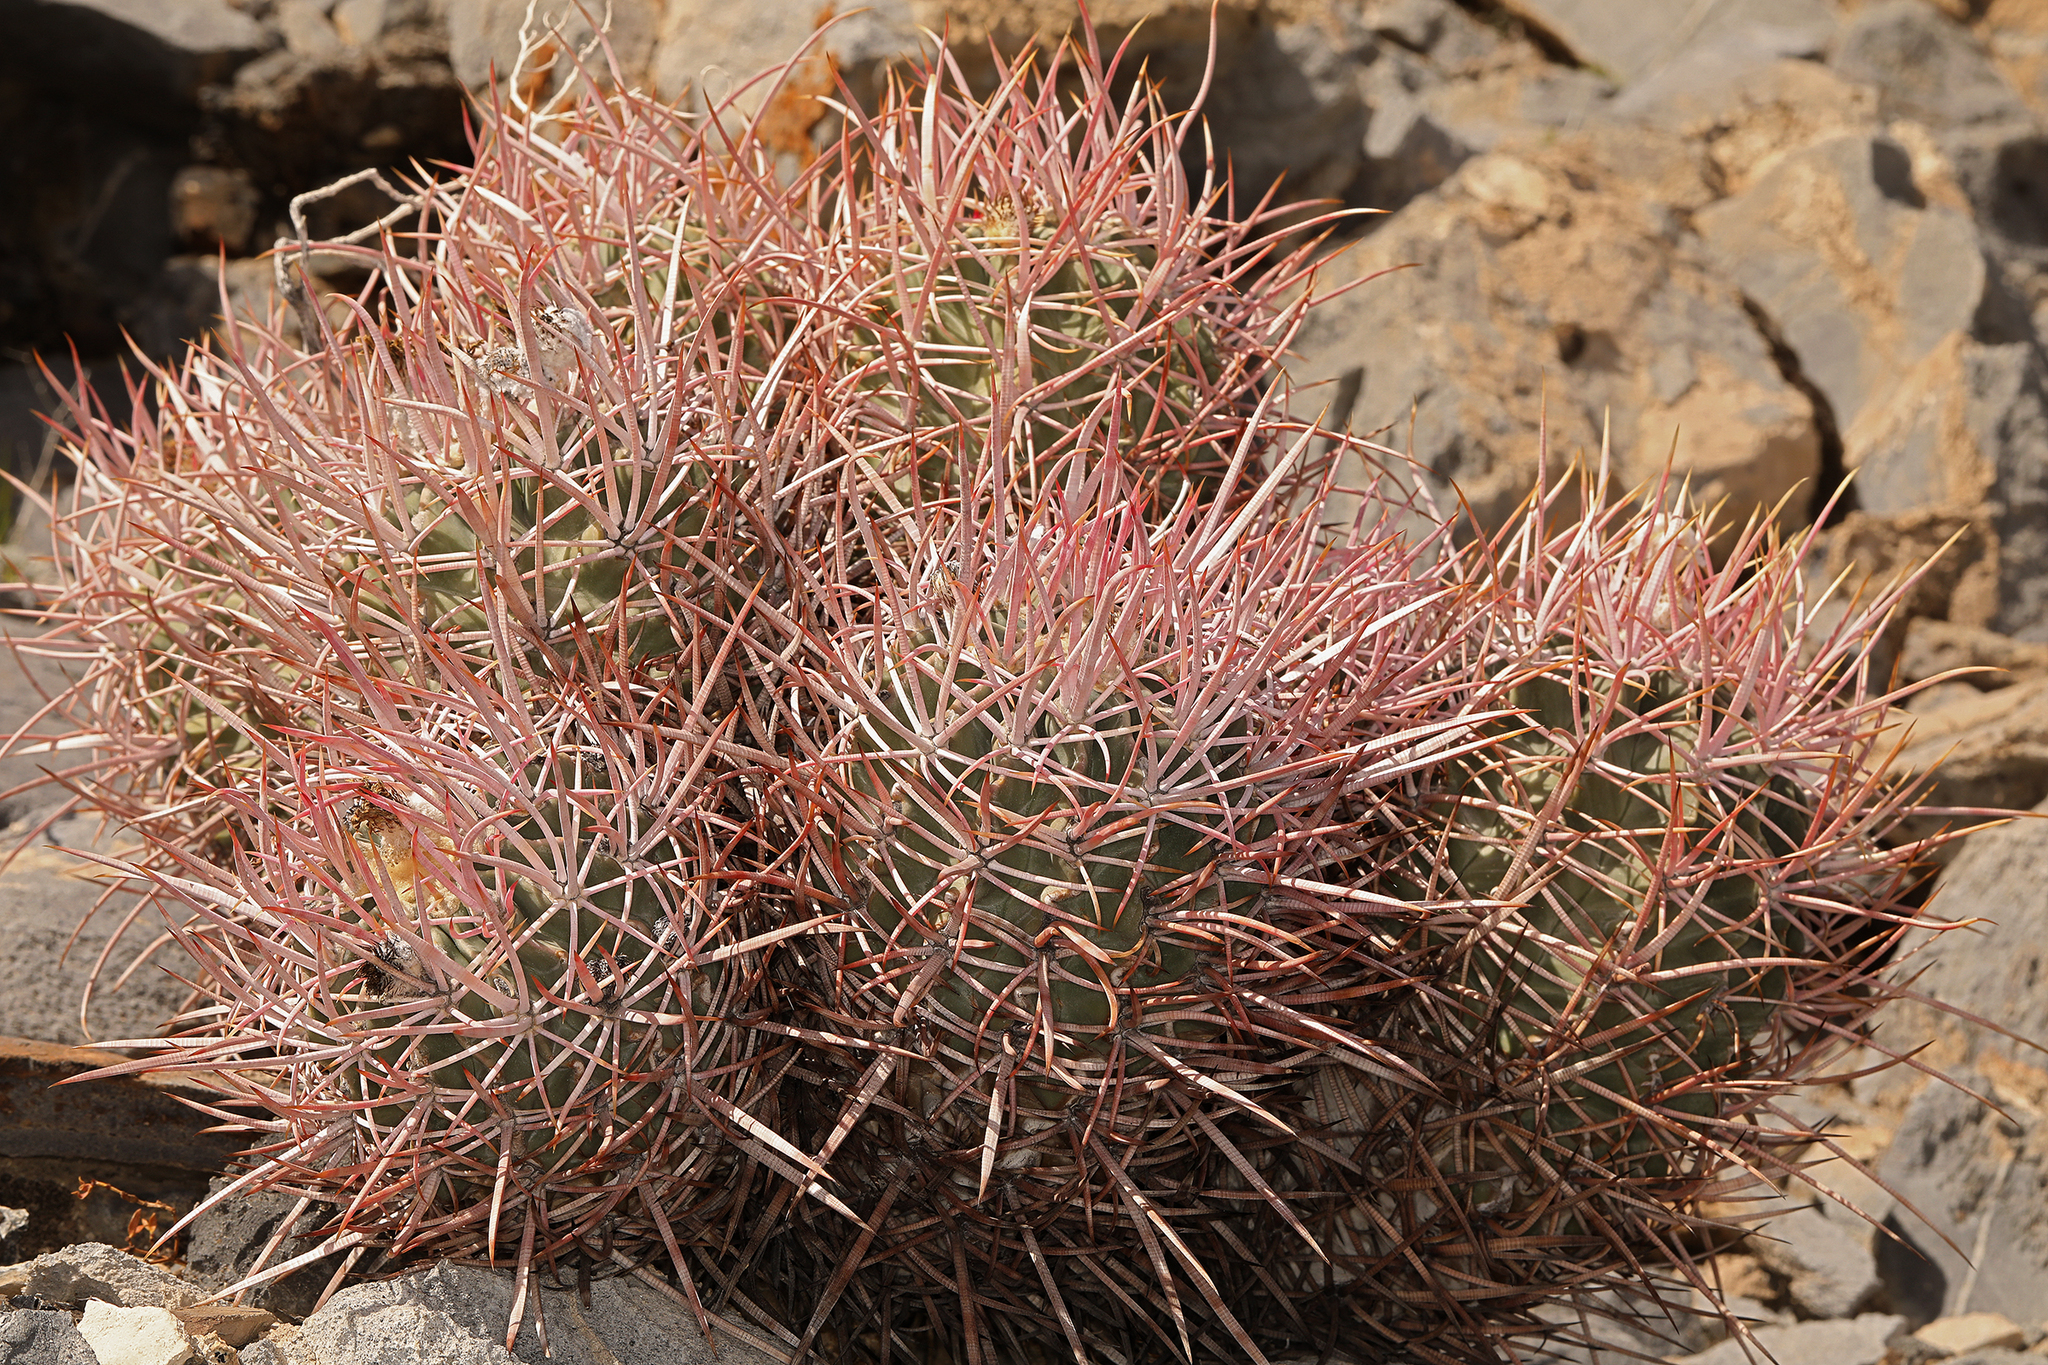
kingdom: Plantae
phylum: Tracheophyta
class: Magnoliopsida
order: Caryophyllales
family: Cactaceae
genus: Echinocactus
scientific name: Echinocactus polycephalus
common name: Cottontop cactus
